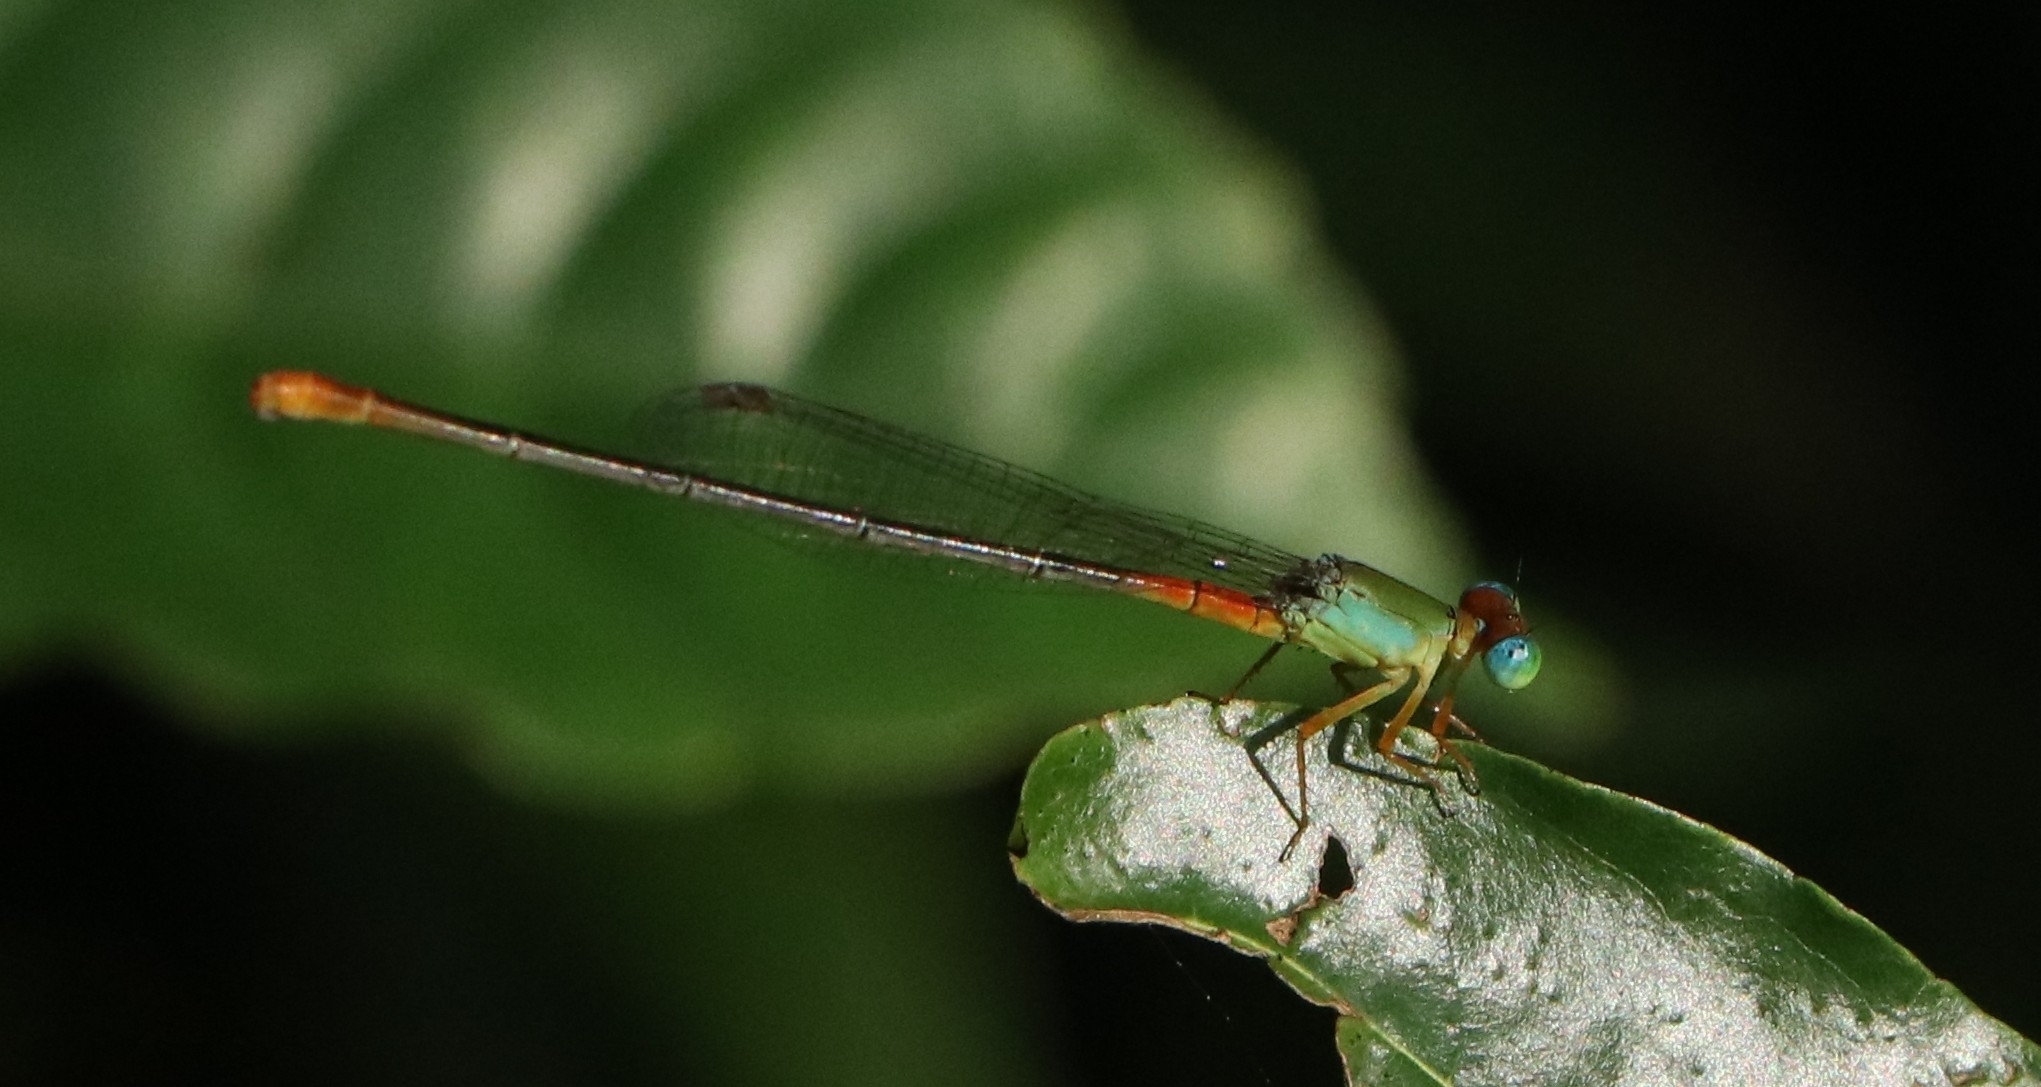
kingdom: Animalia
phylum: Arthropoda
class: Insecta
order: Odonata
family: Coenagrionidae
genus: Ceriagrion
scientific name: Ceriagrion cerinorubellum
